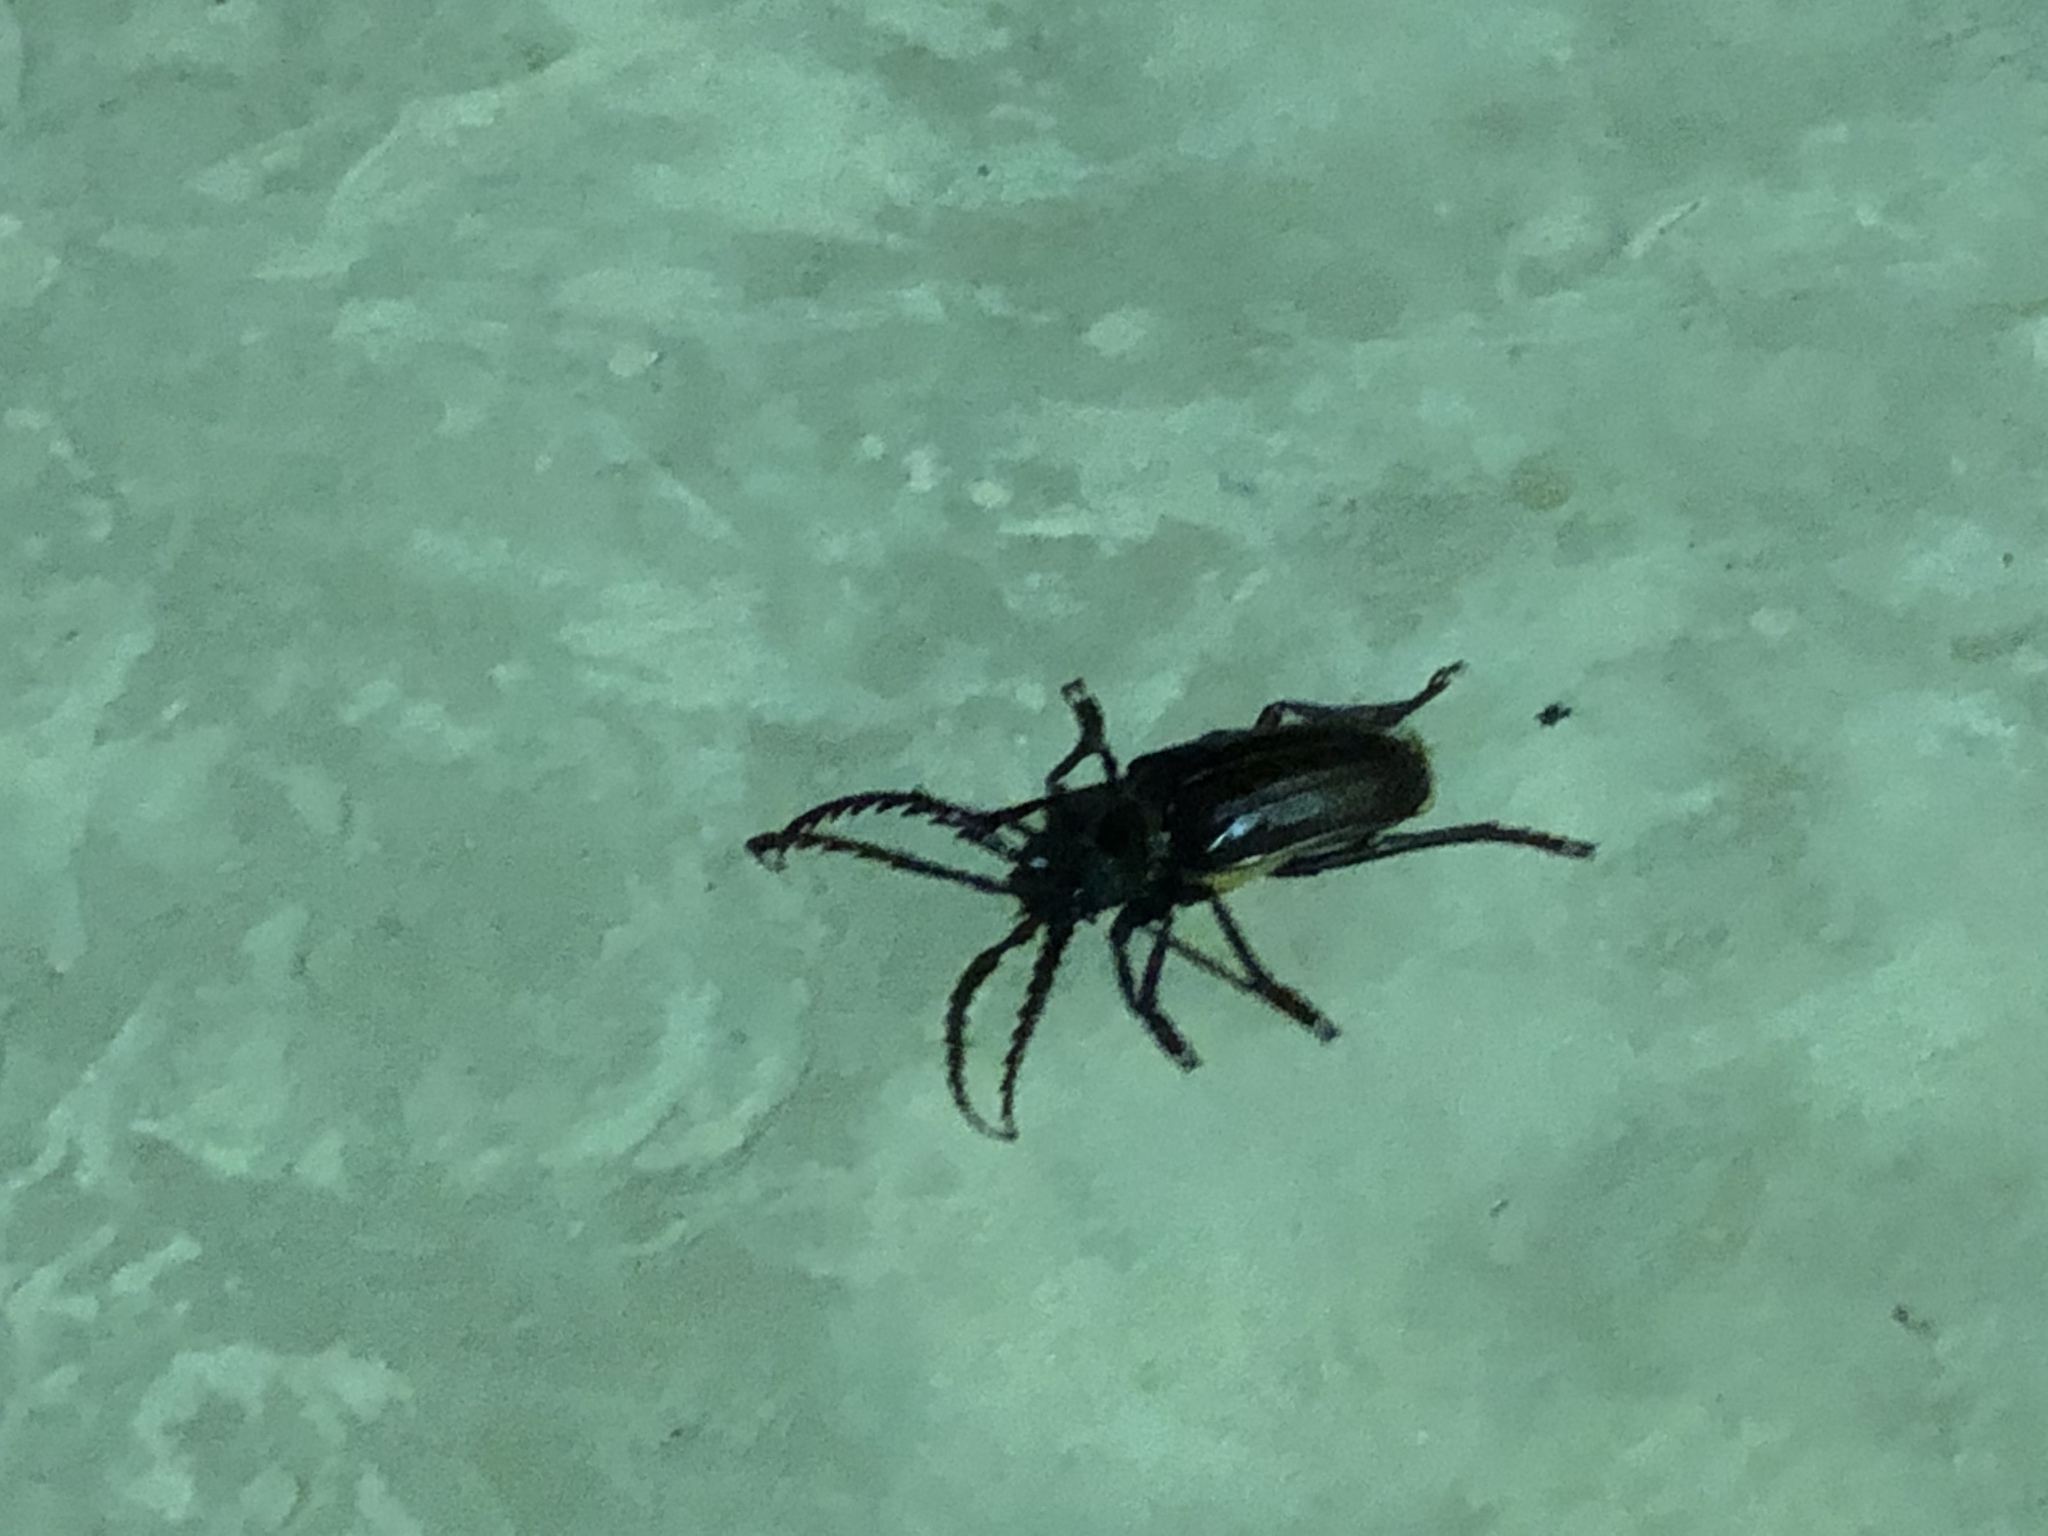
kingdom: Animalia
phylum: Arthropoda
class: Insecta
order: Coleoptera
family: Cerambycidae
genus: Prionus
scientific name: Prionus californicus
